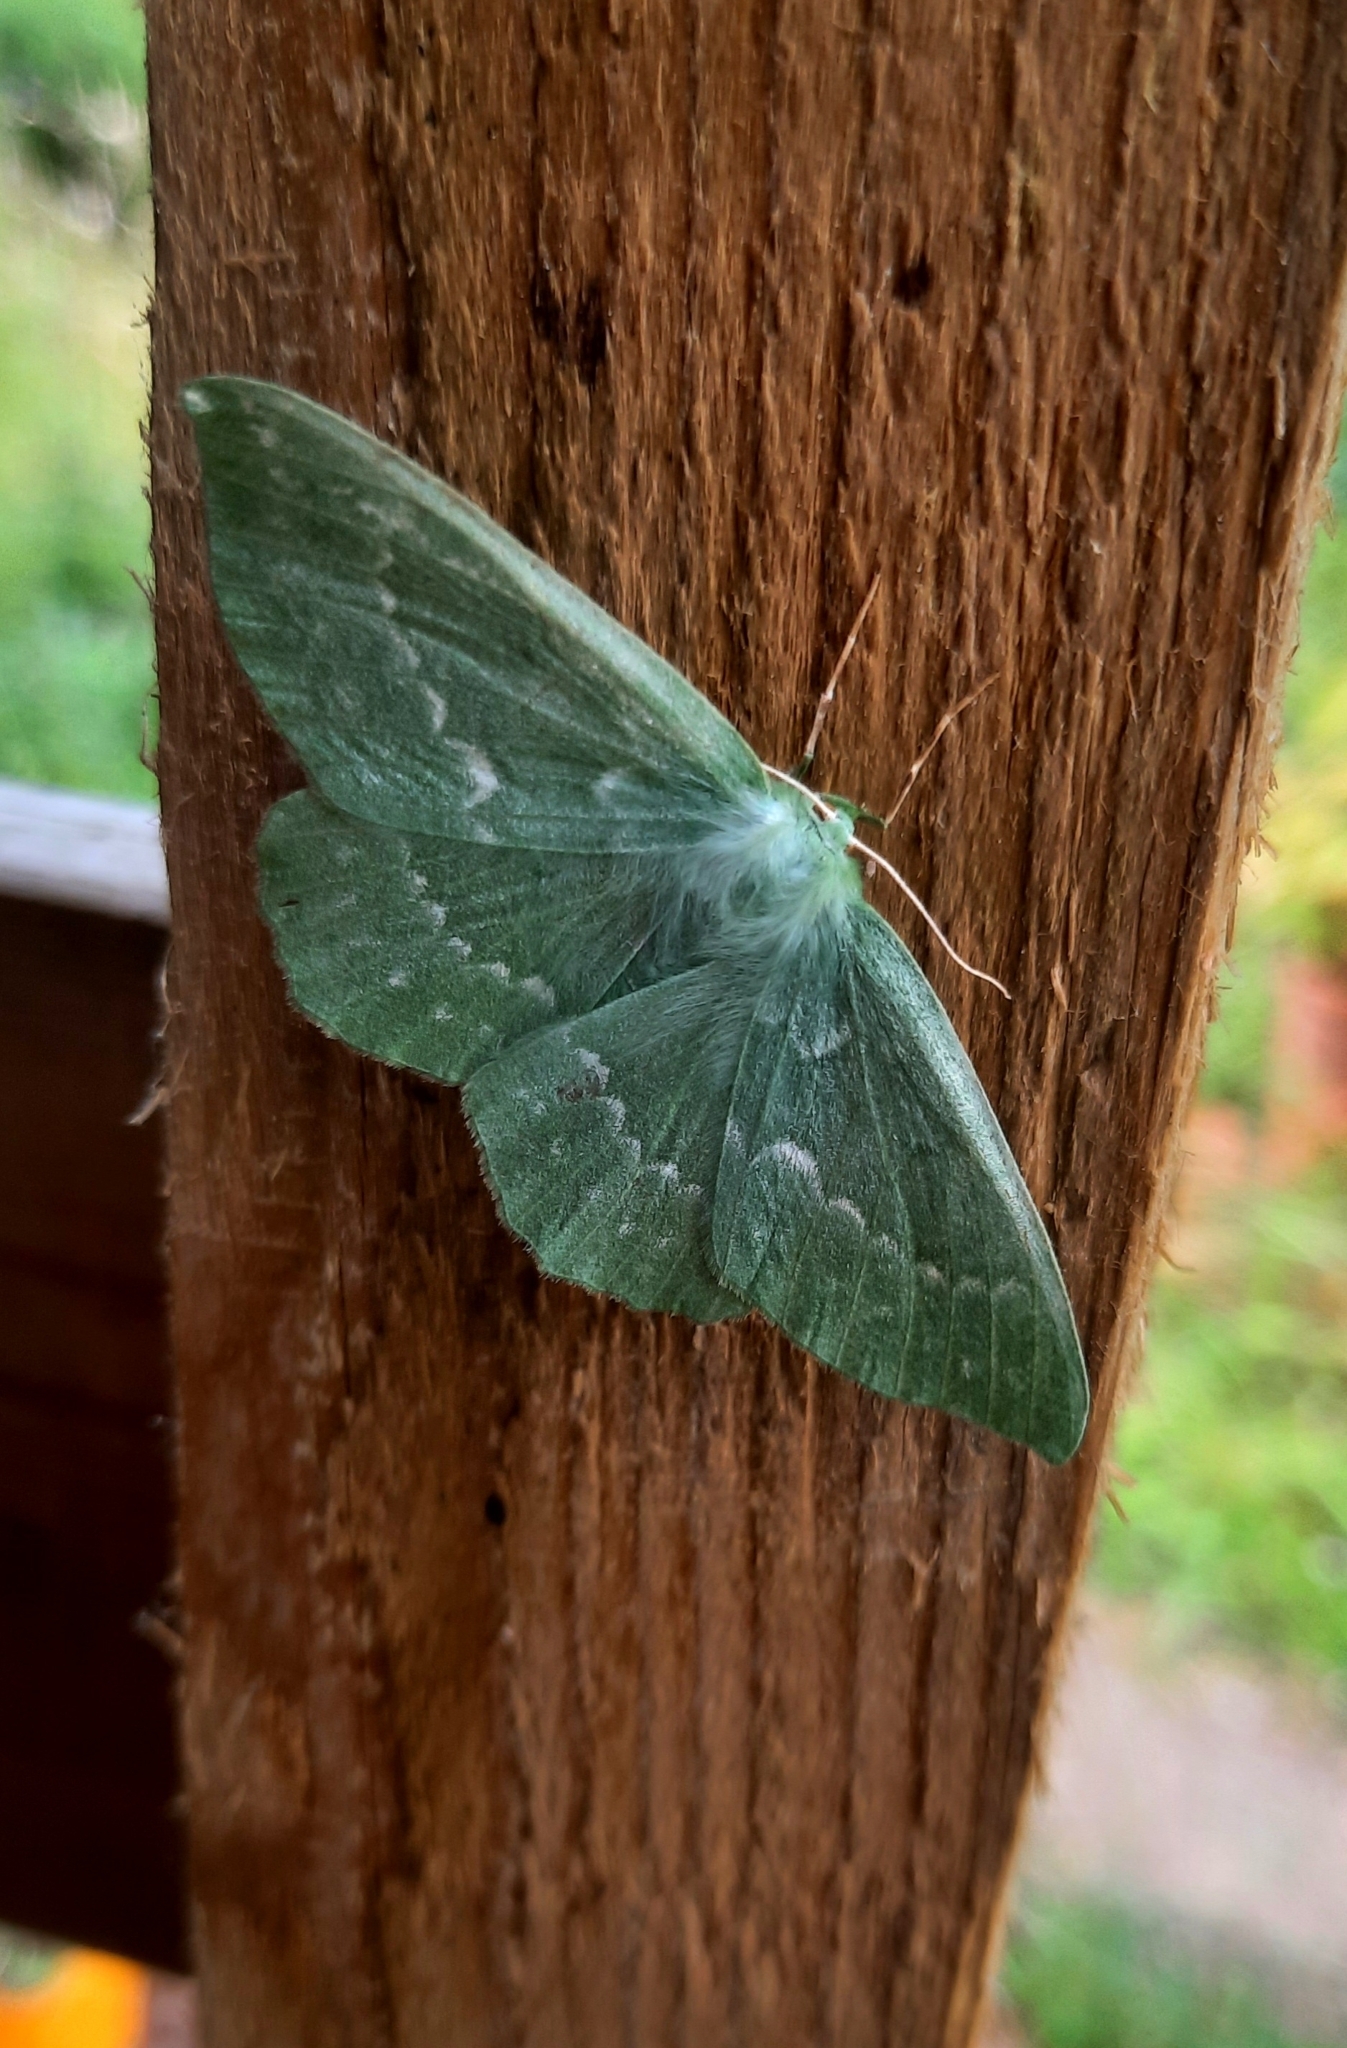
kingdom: Animalia
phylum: Arthropoda
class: Insecta
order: Lepidoptera
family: Geometridae
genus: Geometra
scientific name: Geometra papilionaria
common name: Large emerald
